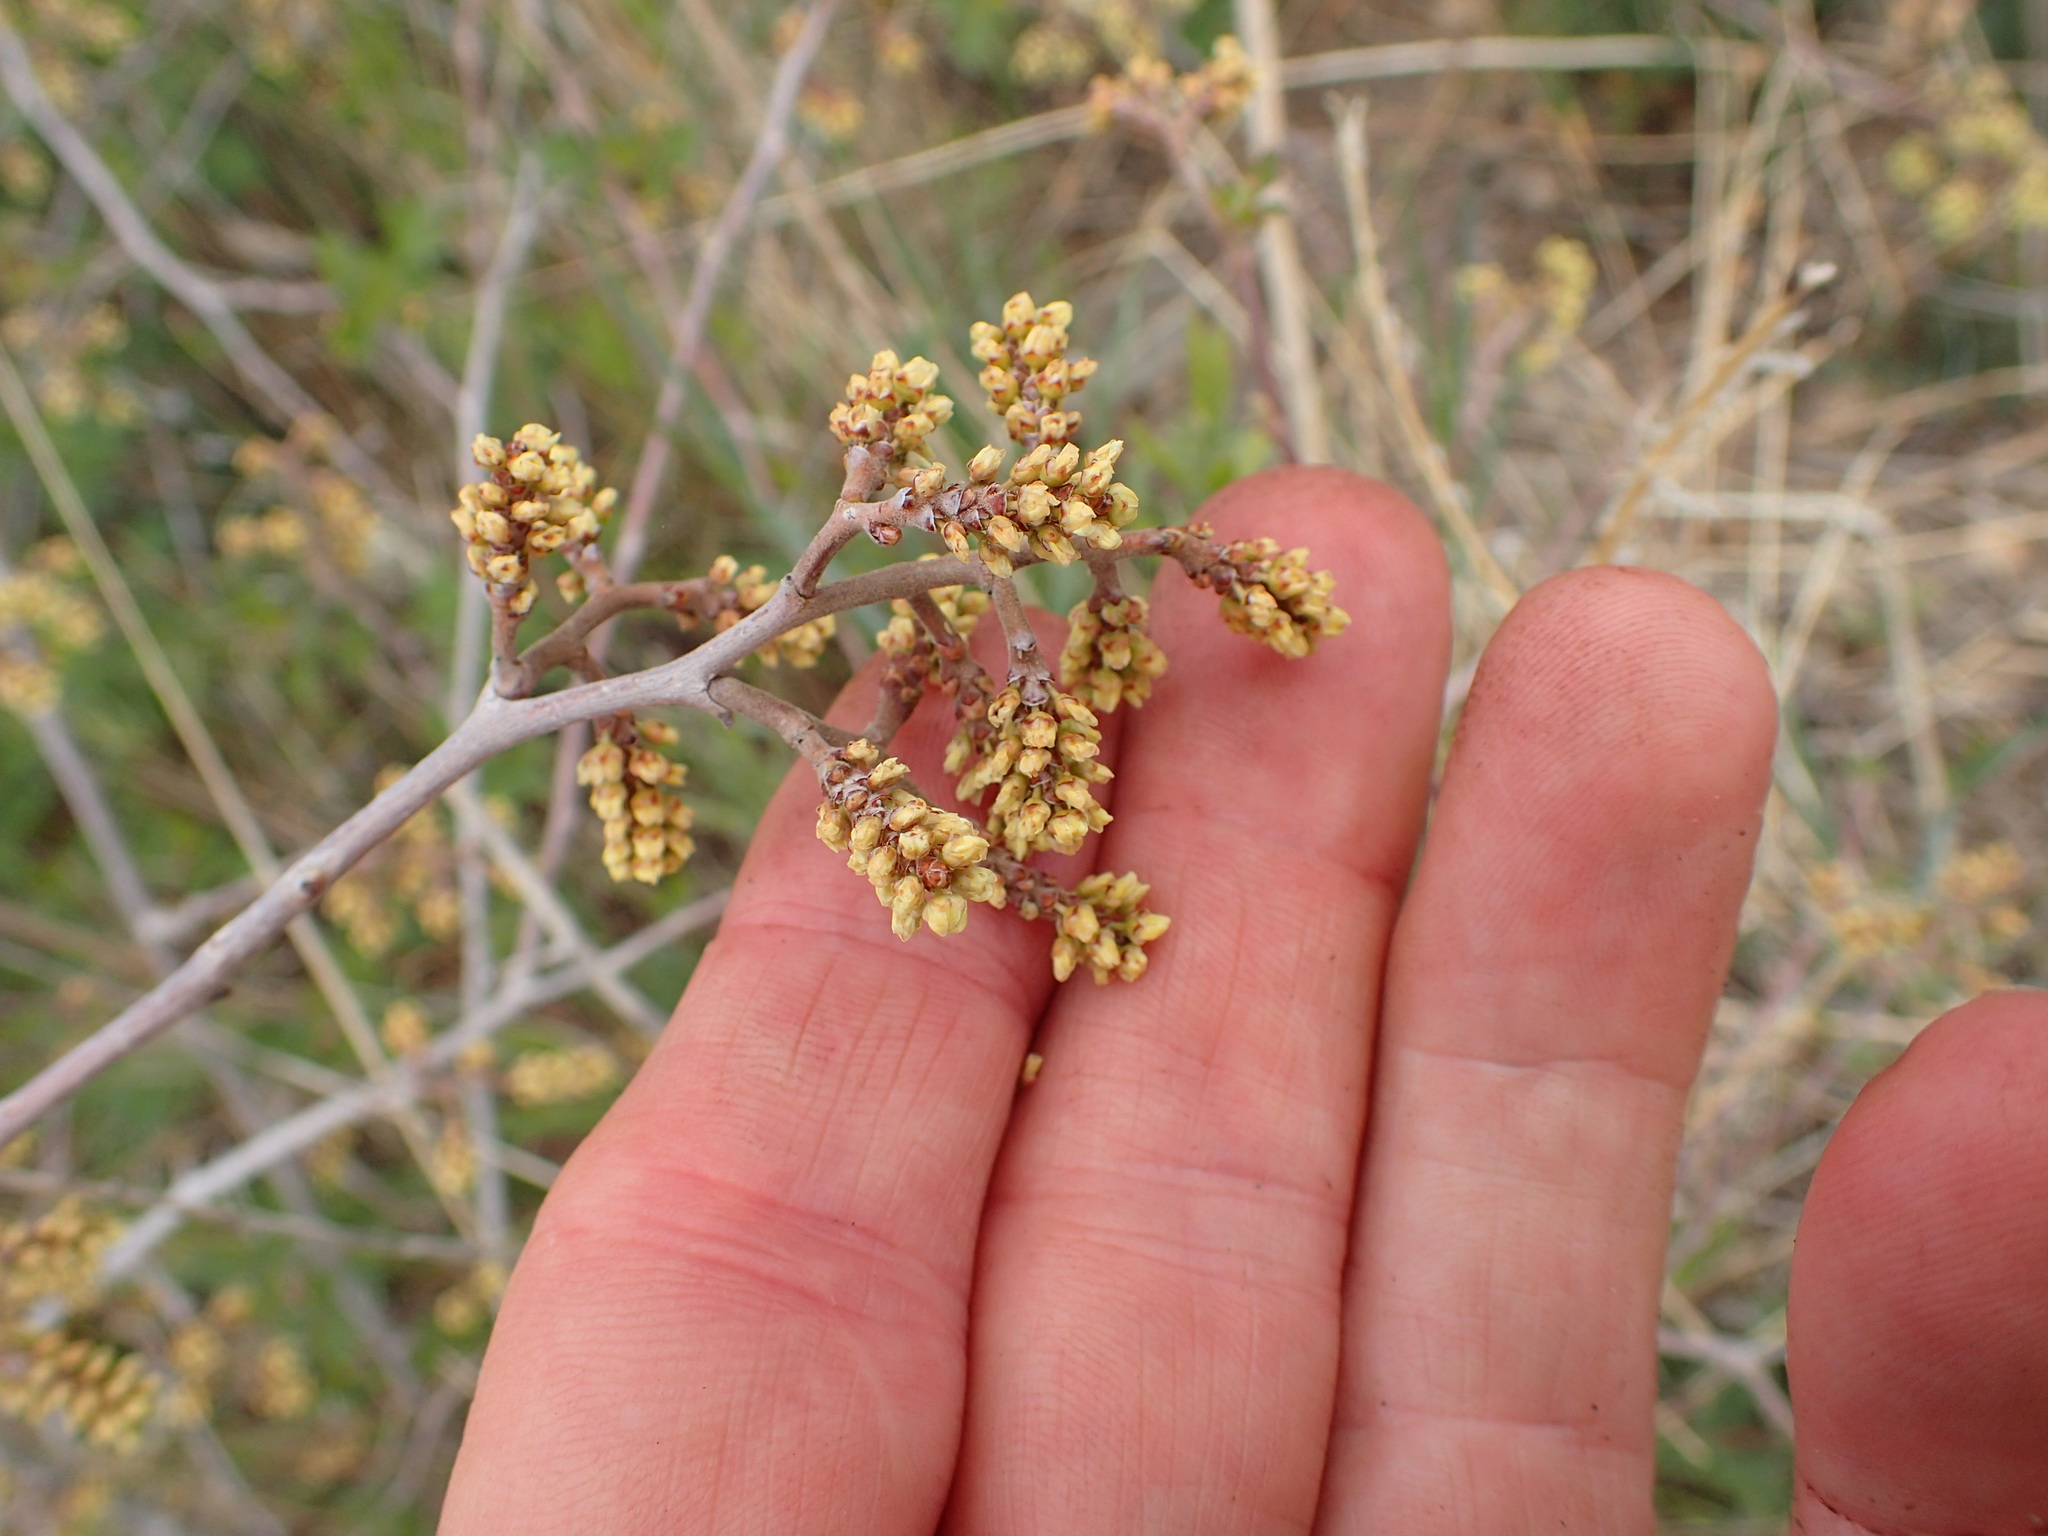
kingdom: Plantae
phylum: Tracheophyta
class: Magnoliopsida
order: Sapindales
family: Anacardiaceae
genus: Rhus
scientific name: Rhus aromatica
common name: Aromatic sumac
